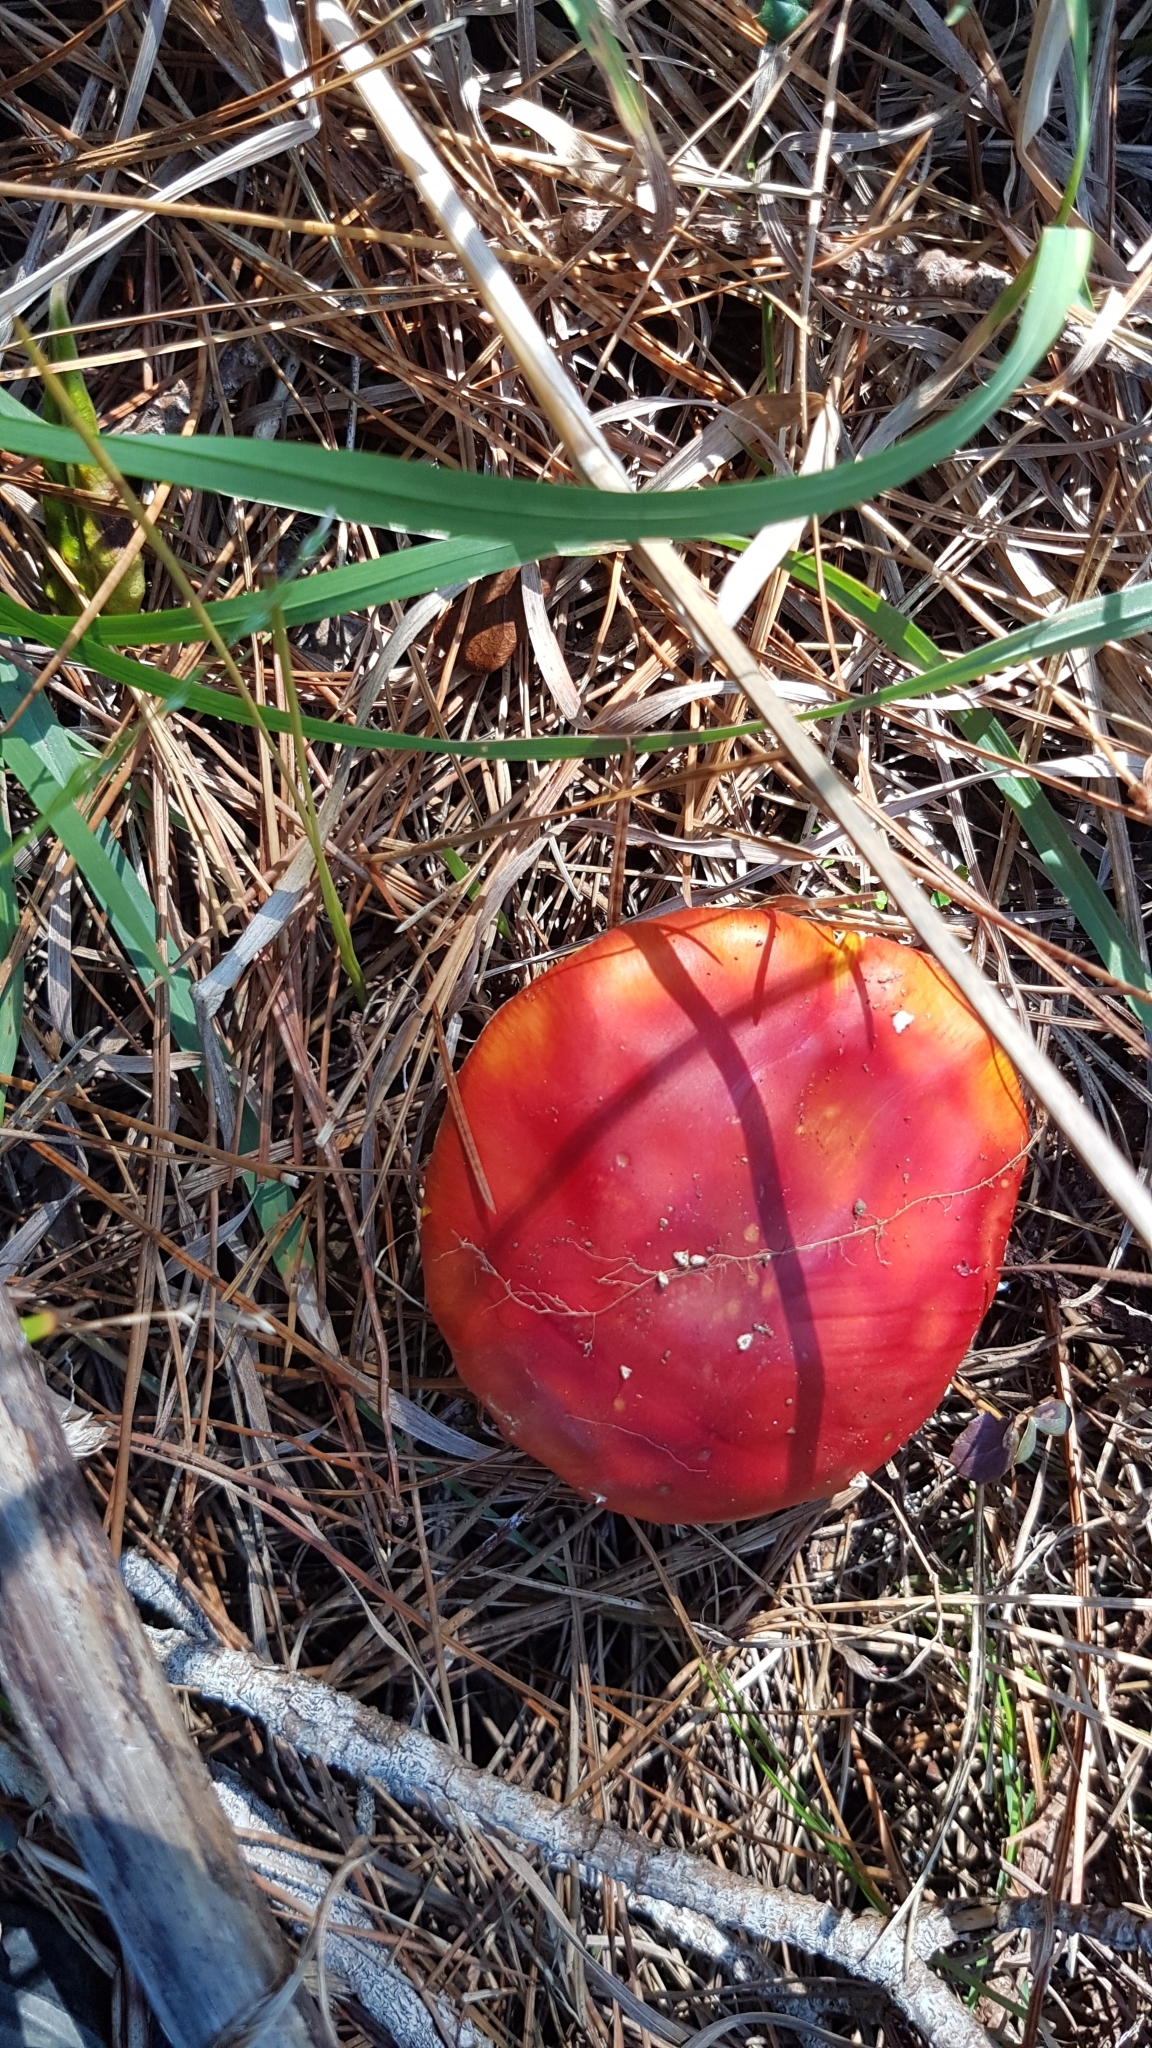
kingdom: Fungi
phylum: Basidiomycota
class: Agaricomycetes
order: Agaricales
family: Amanitaceae
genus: Amanita
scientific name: Amanita muscaria
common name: Fly agaric
